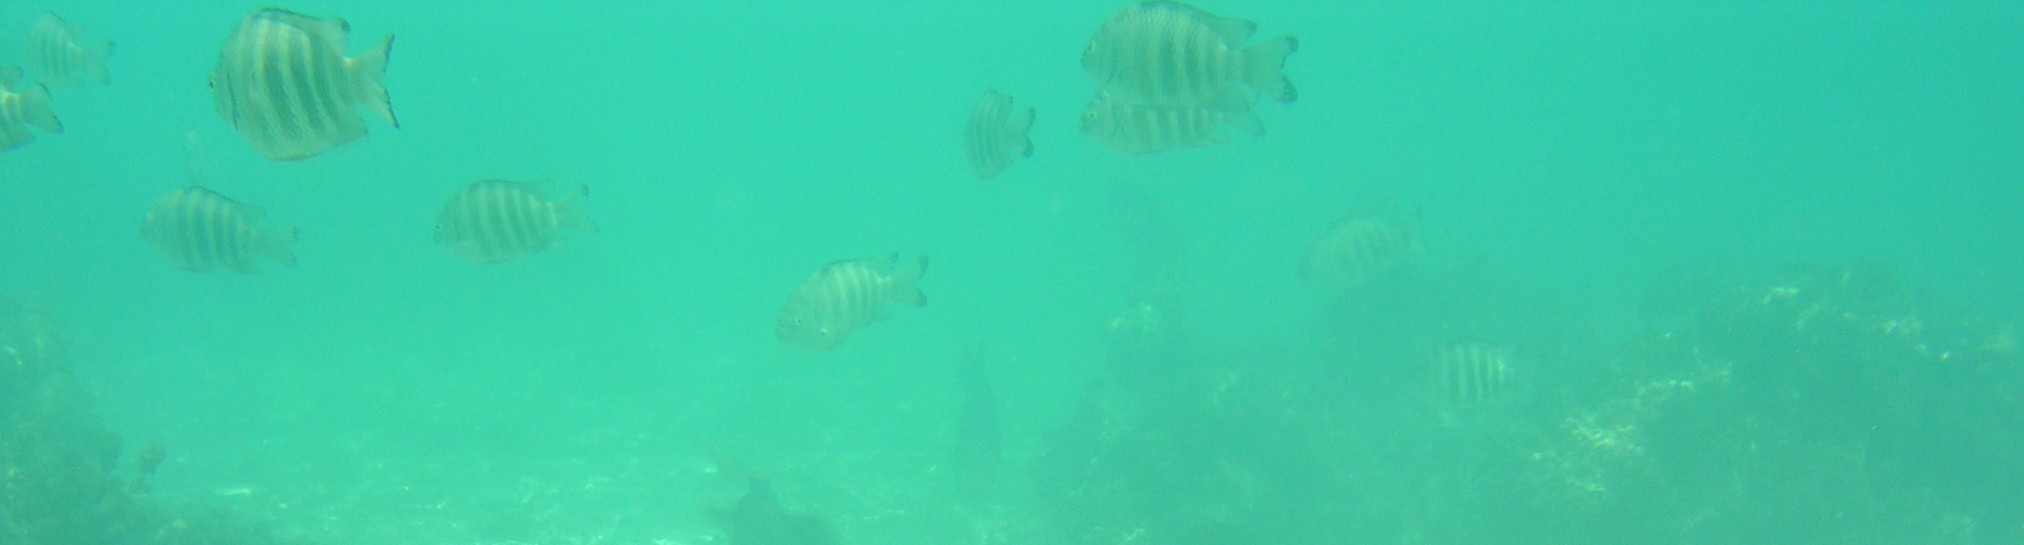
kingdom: Animalia
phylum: Chordata
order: Perciformes
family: Pomacentridae
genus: Abudefduf
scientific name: Abudefduf septemfasciatus
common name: Banded sergeant
